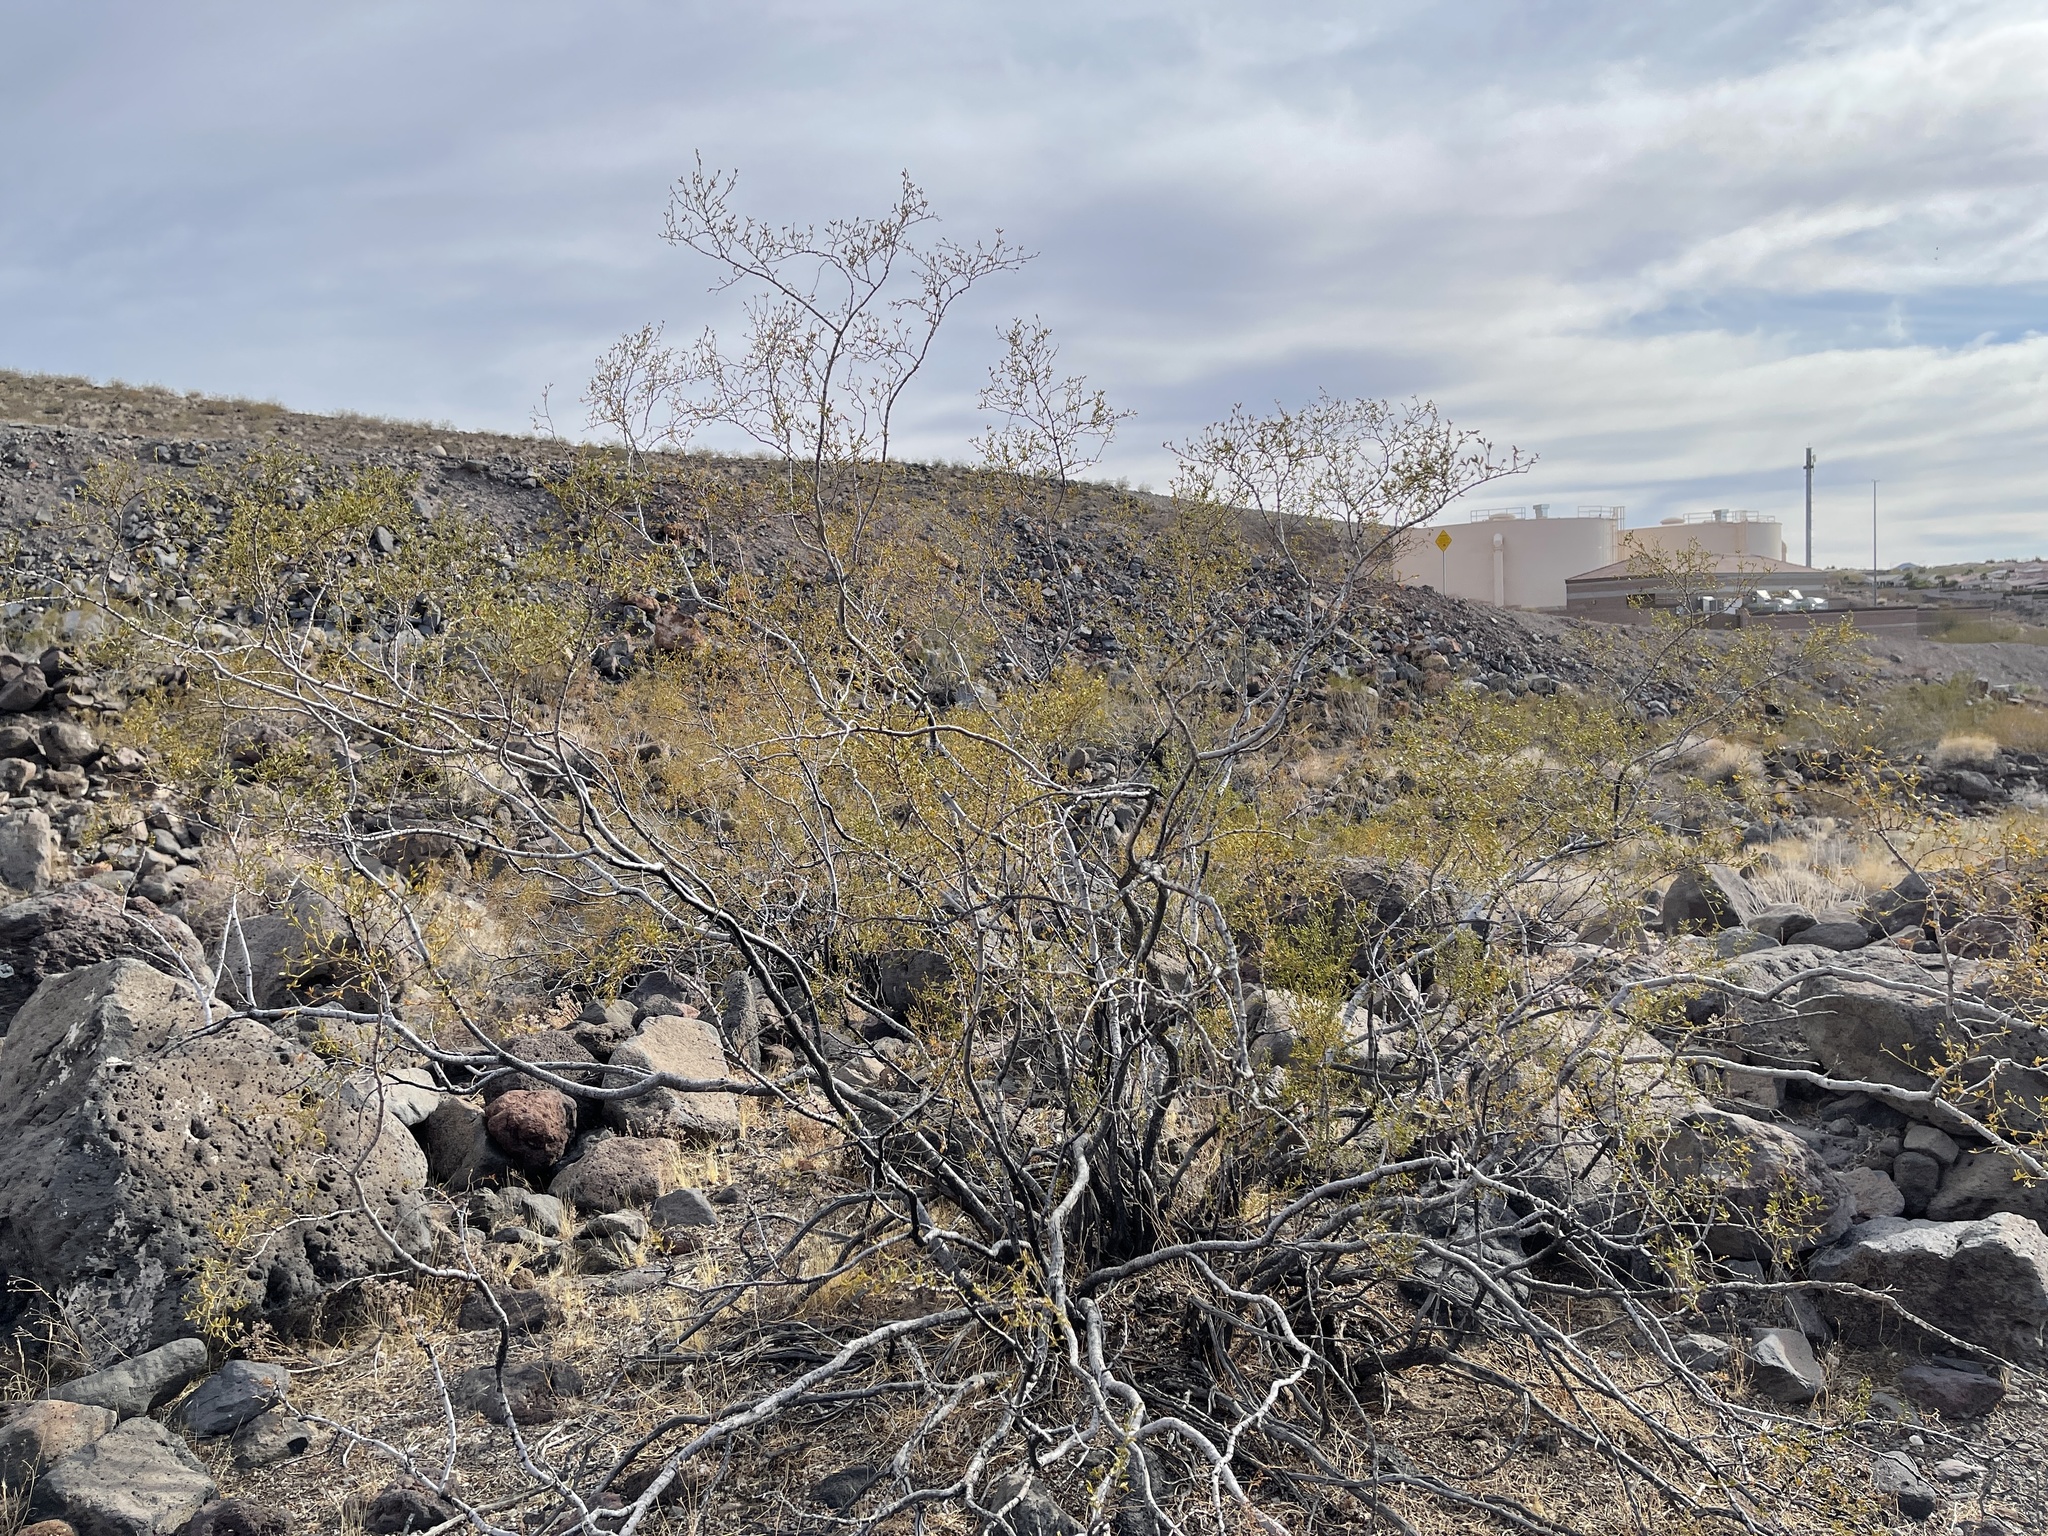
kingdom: Plantae
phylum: Tracheophyta
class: Magnoliopsida
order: Zygophyllales
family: Zygophyllaceae
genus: Larrea
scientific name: Larrea tridentata
